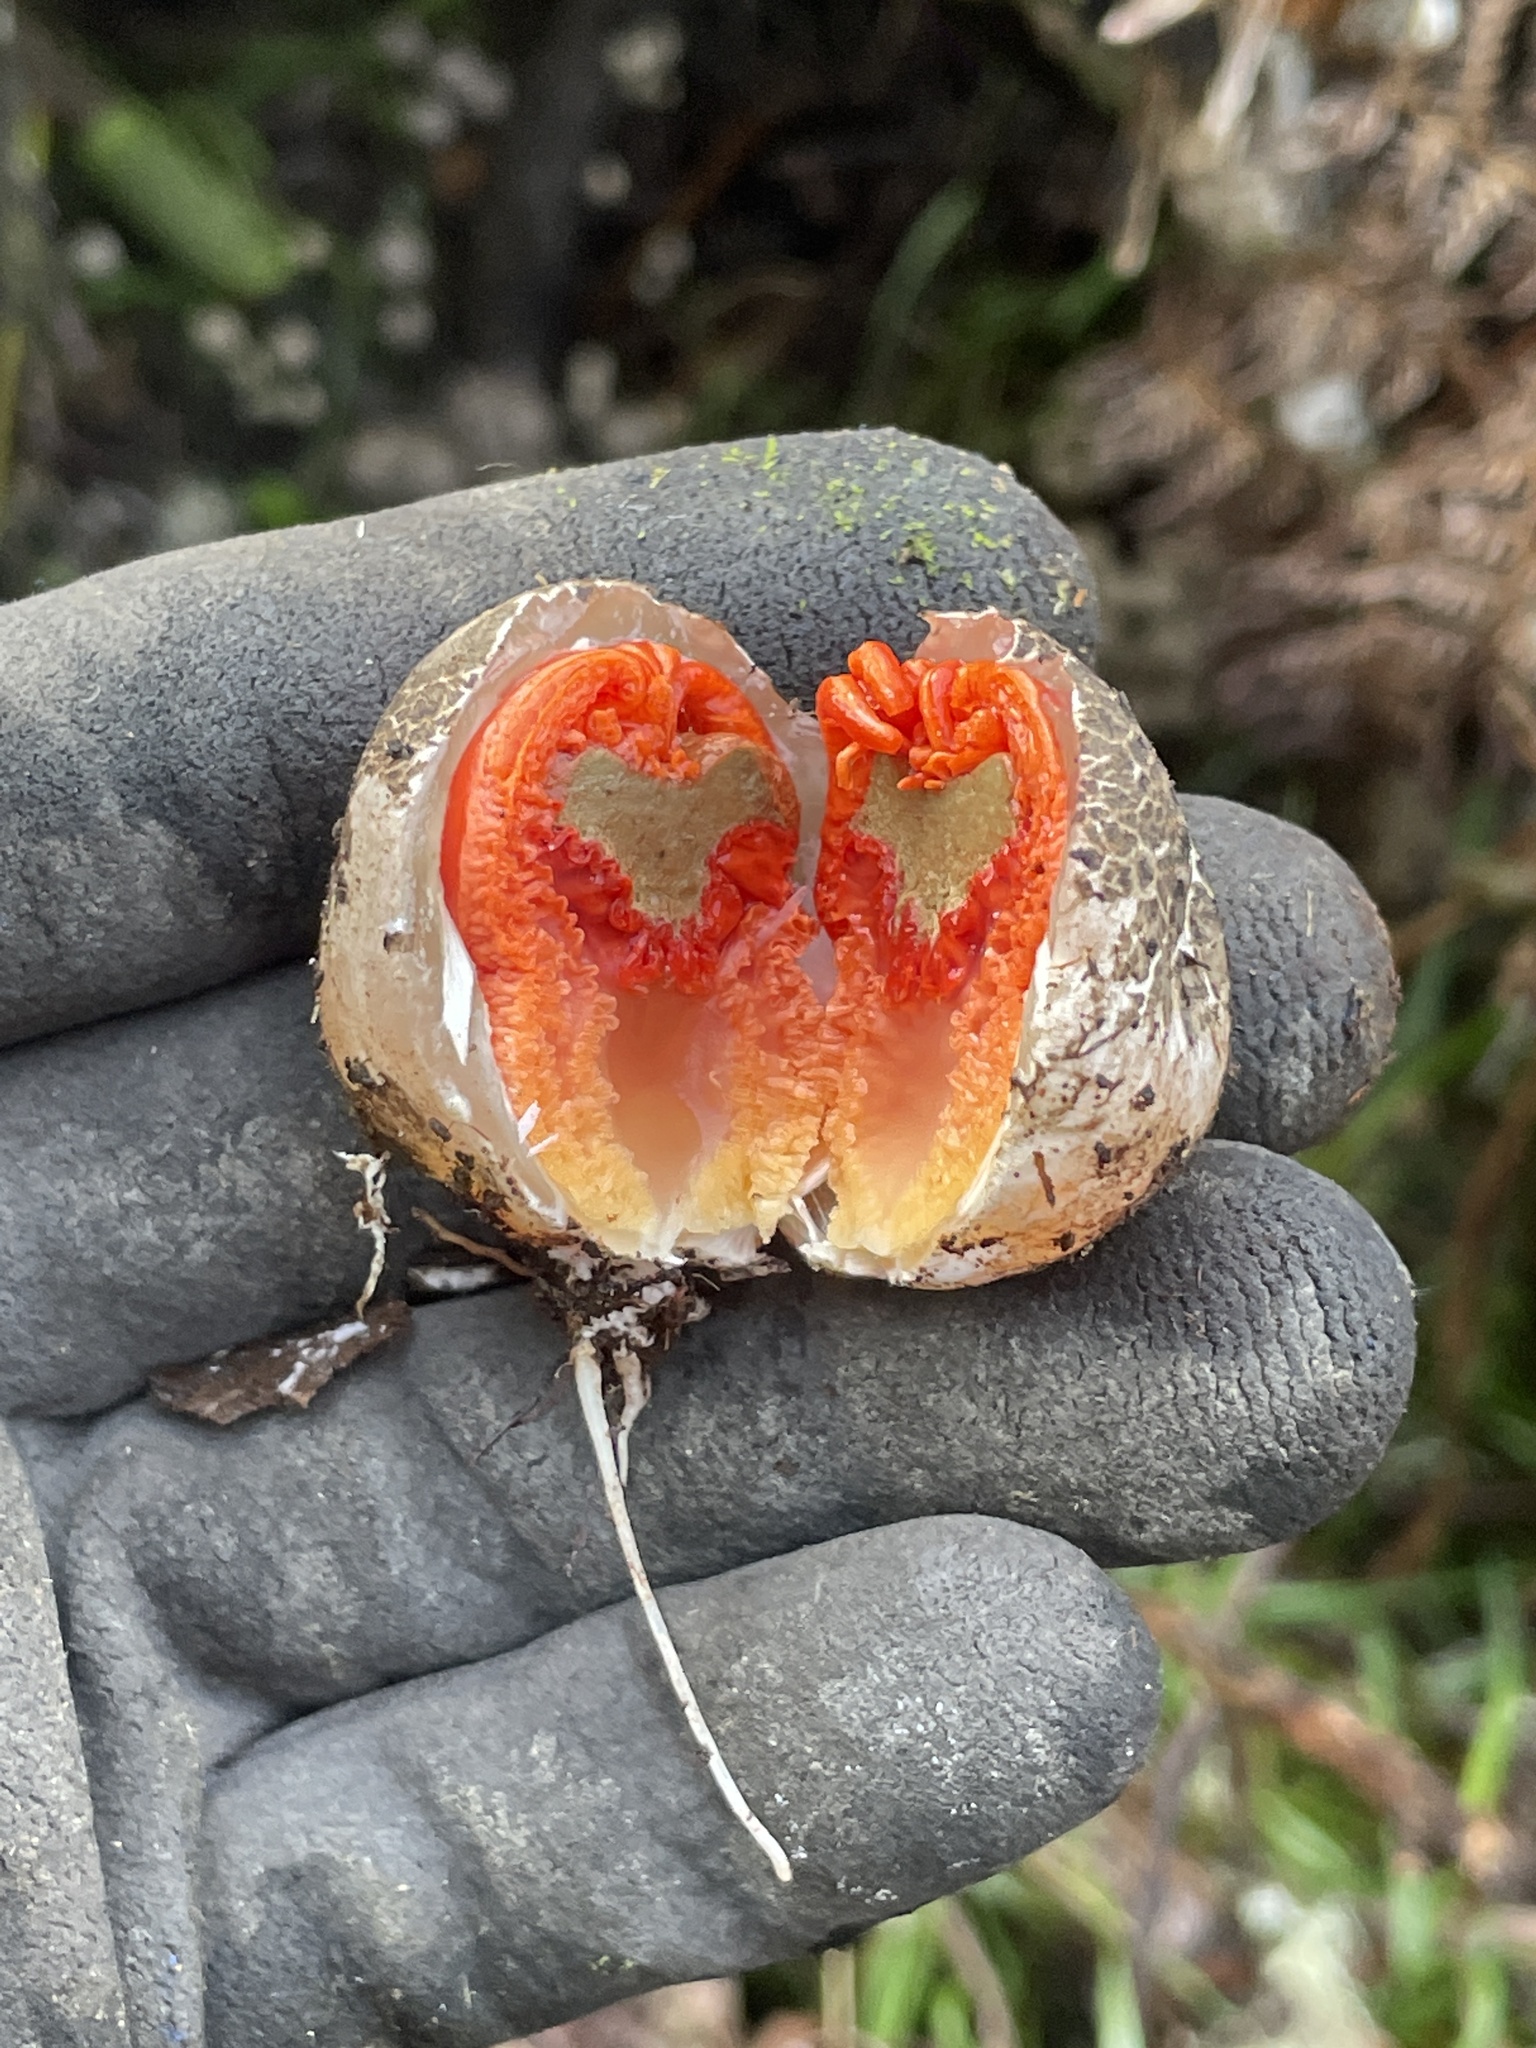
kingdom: Fungi
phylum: Basidiomycota
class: Agaricomycetes
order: Phallales
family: Phallaceae
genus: Aseroe
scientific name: Aseroe rubra
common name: Starfish fungus
